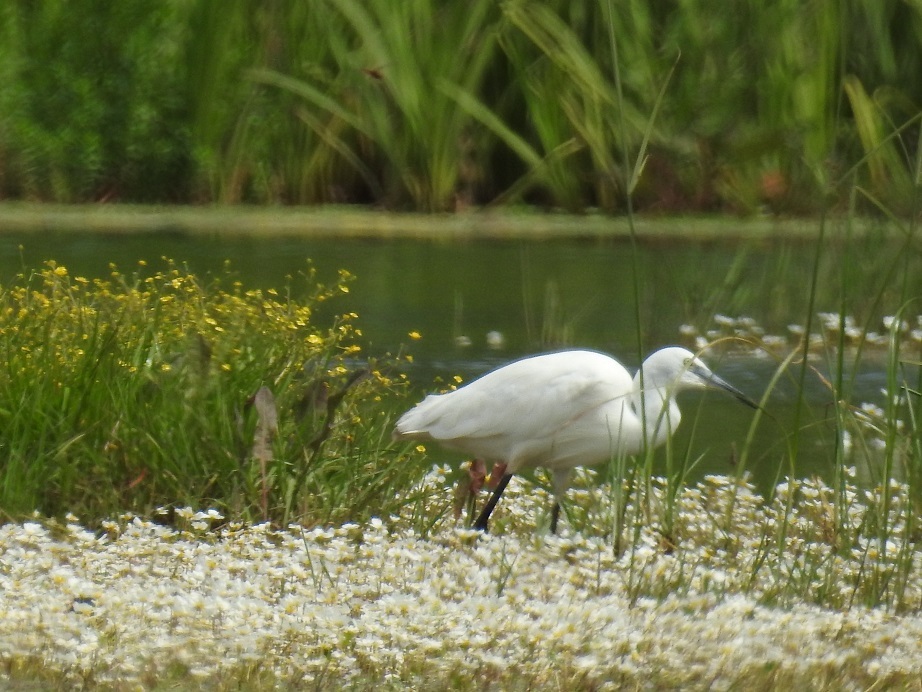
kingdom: Animalia
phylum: Chordata
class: Aves
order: Pelecaniformes
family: Ardeidae
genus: Egretta
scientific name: Egretta garzetta
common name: Little egret
